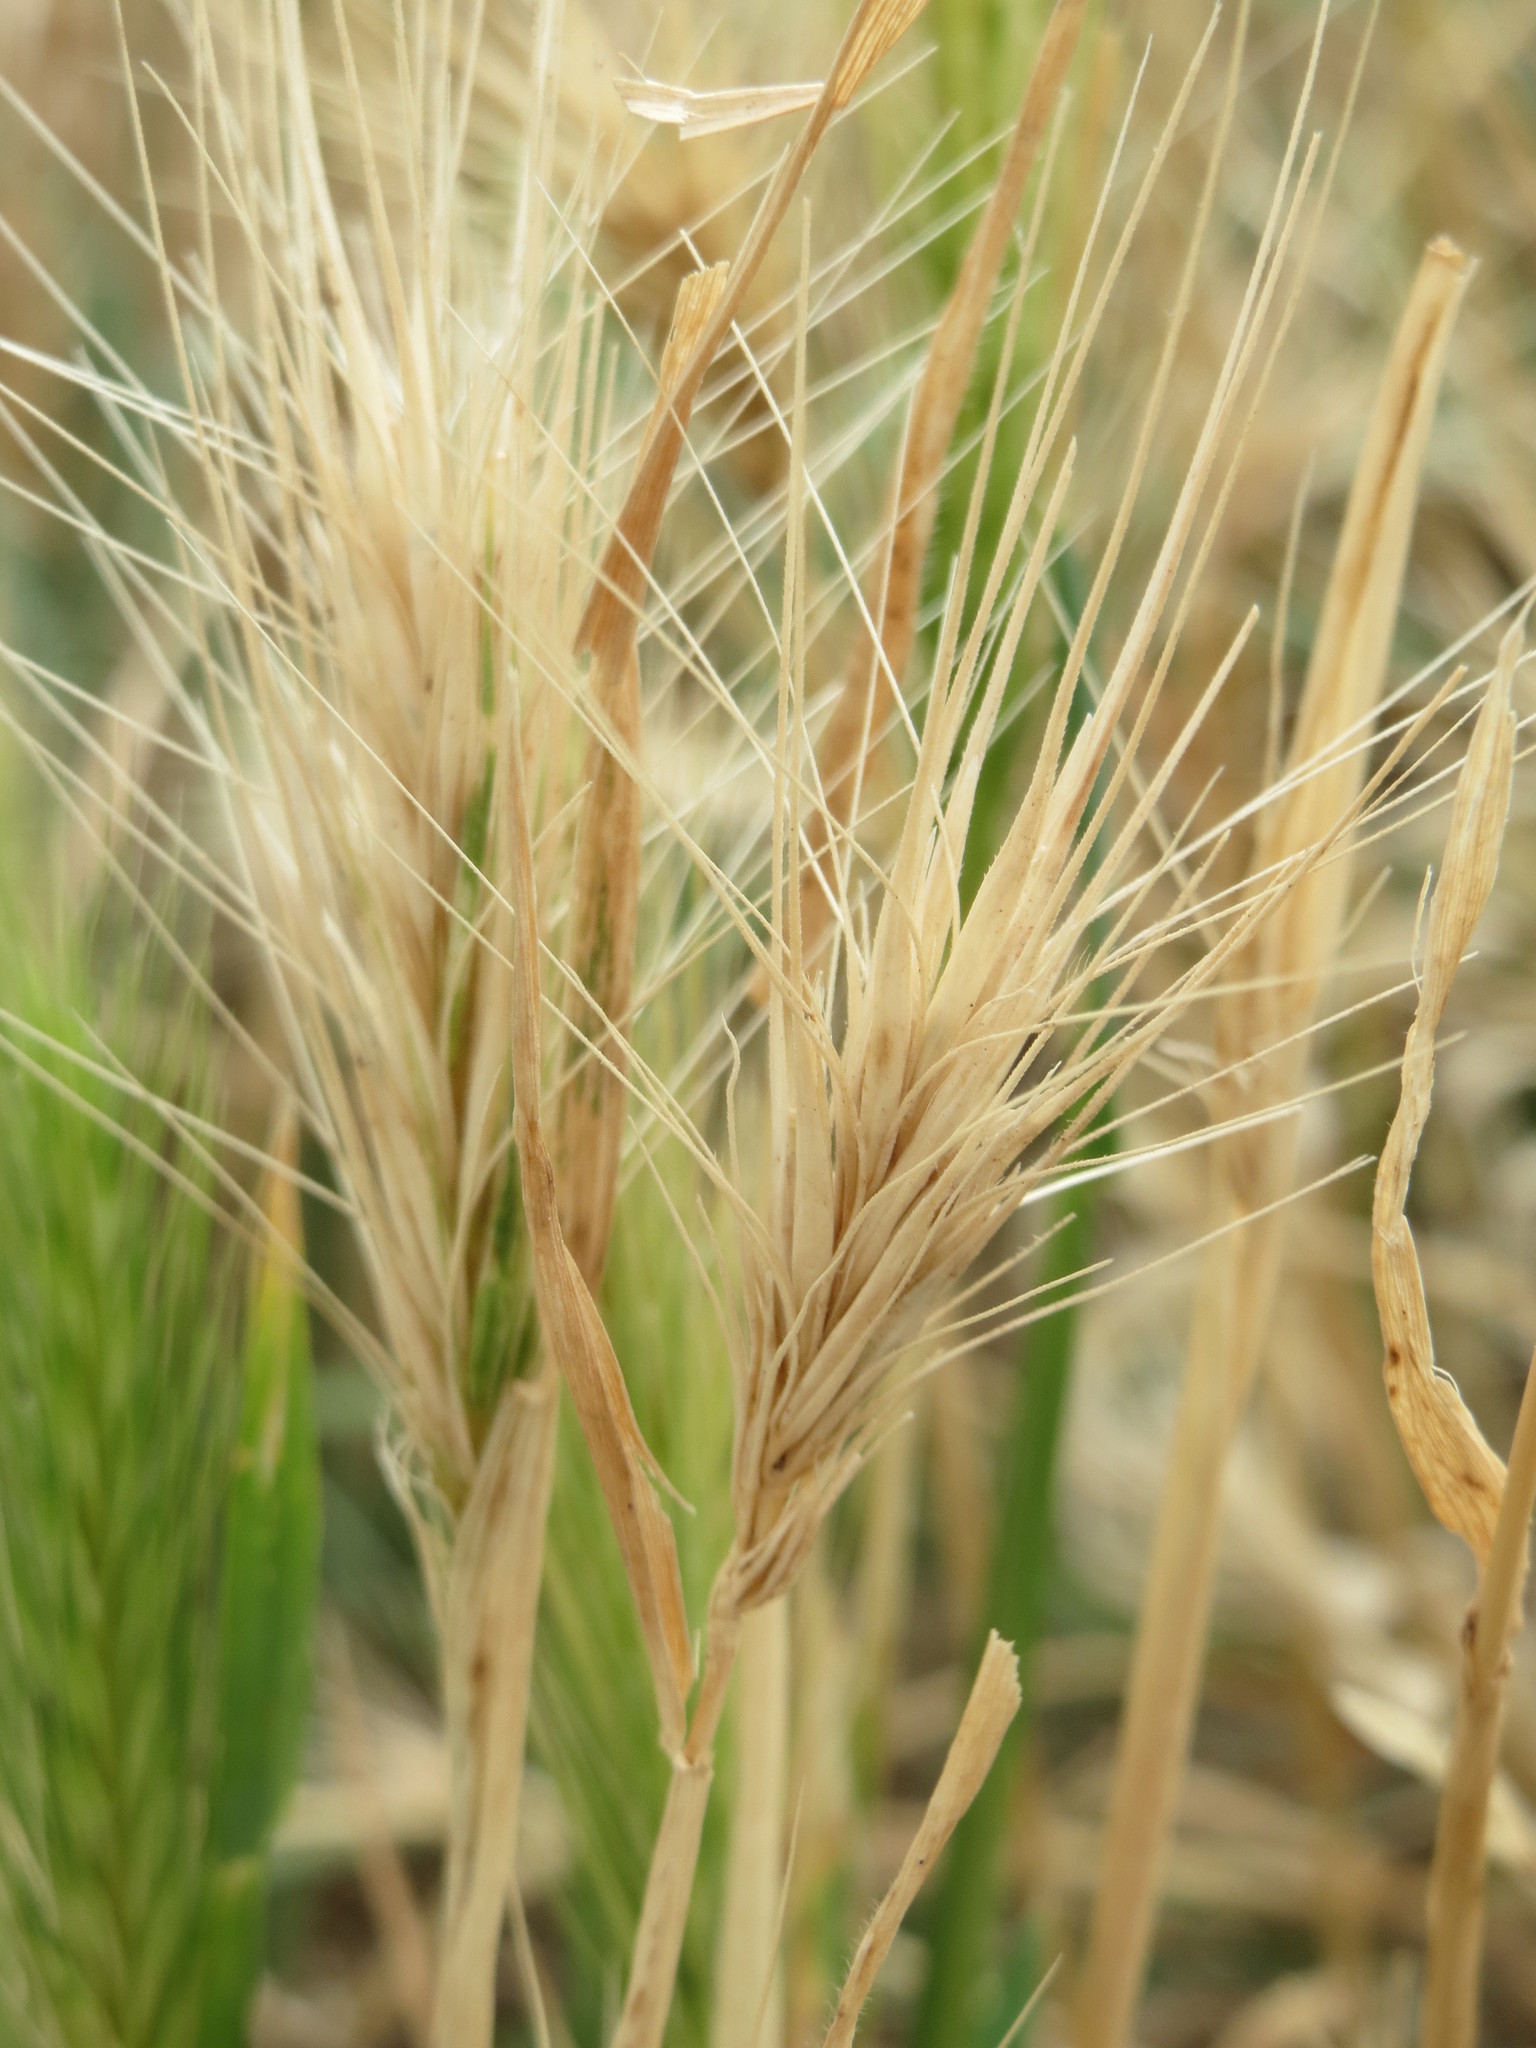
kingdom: Plantae
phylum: Tracheophyta
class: Liliopsida
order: Poales
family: Poaceae
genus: Hordeum
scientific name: Hordeum murinum
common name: Wall barley
